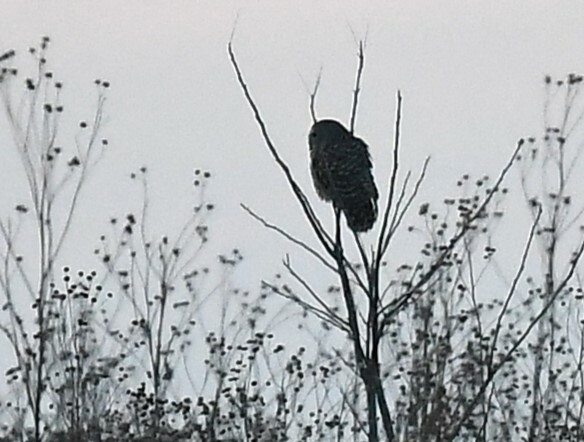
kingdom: Animalia
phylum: Chordata
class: Aves
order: Strigiformes
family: Strigidae
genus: Strix
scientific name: Strix varia
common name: Barred owl
